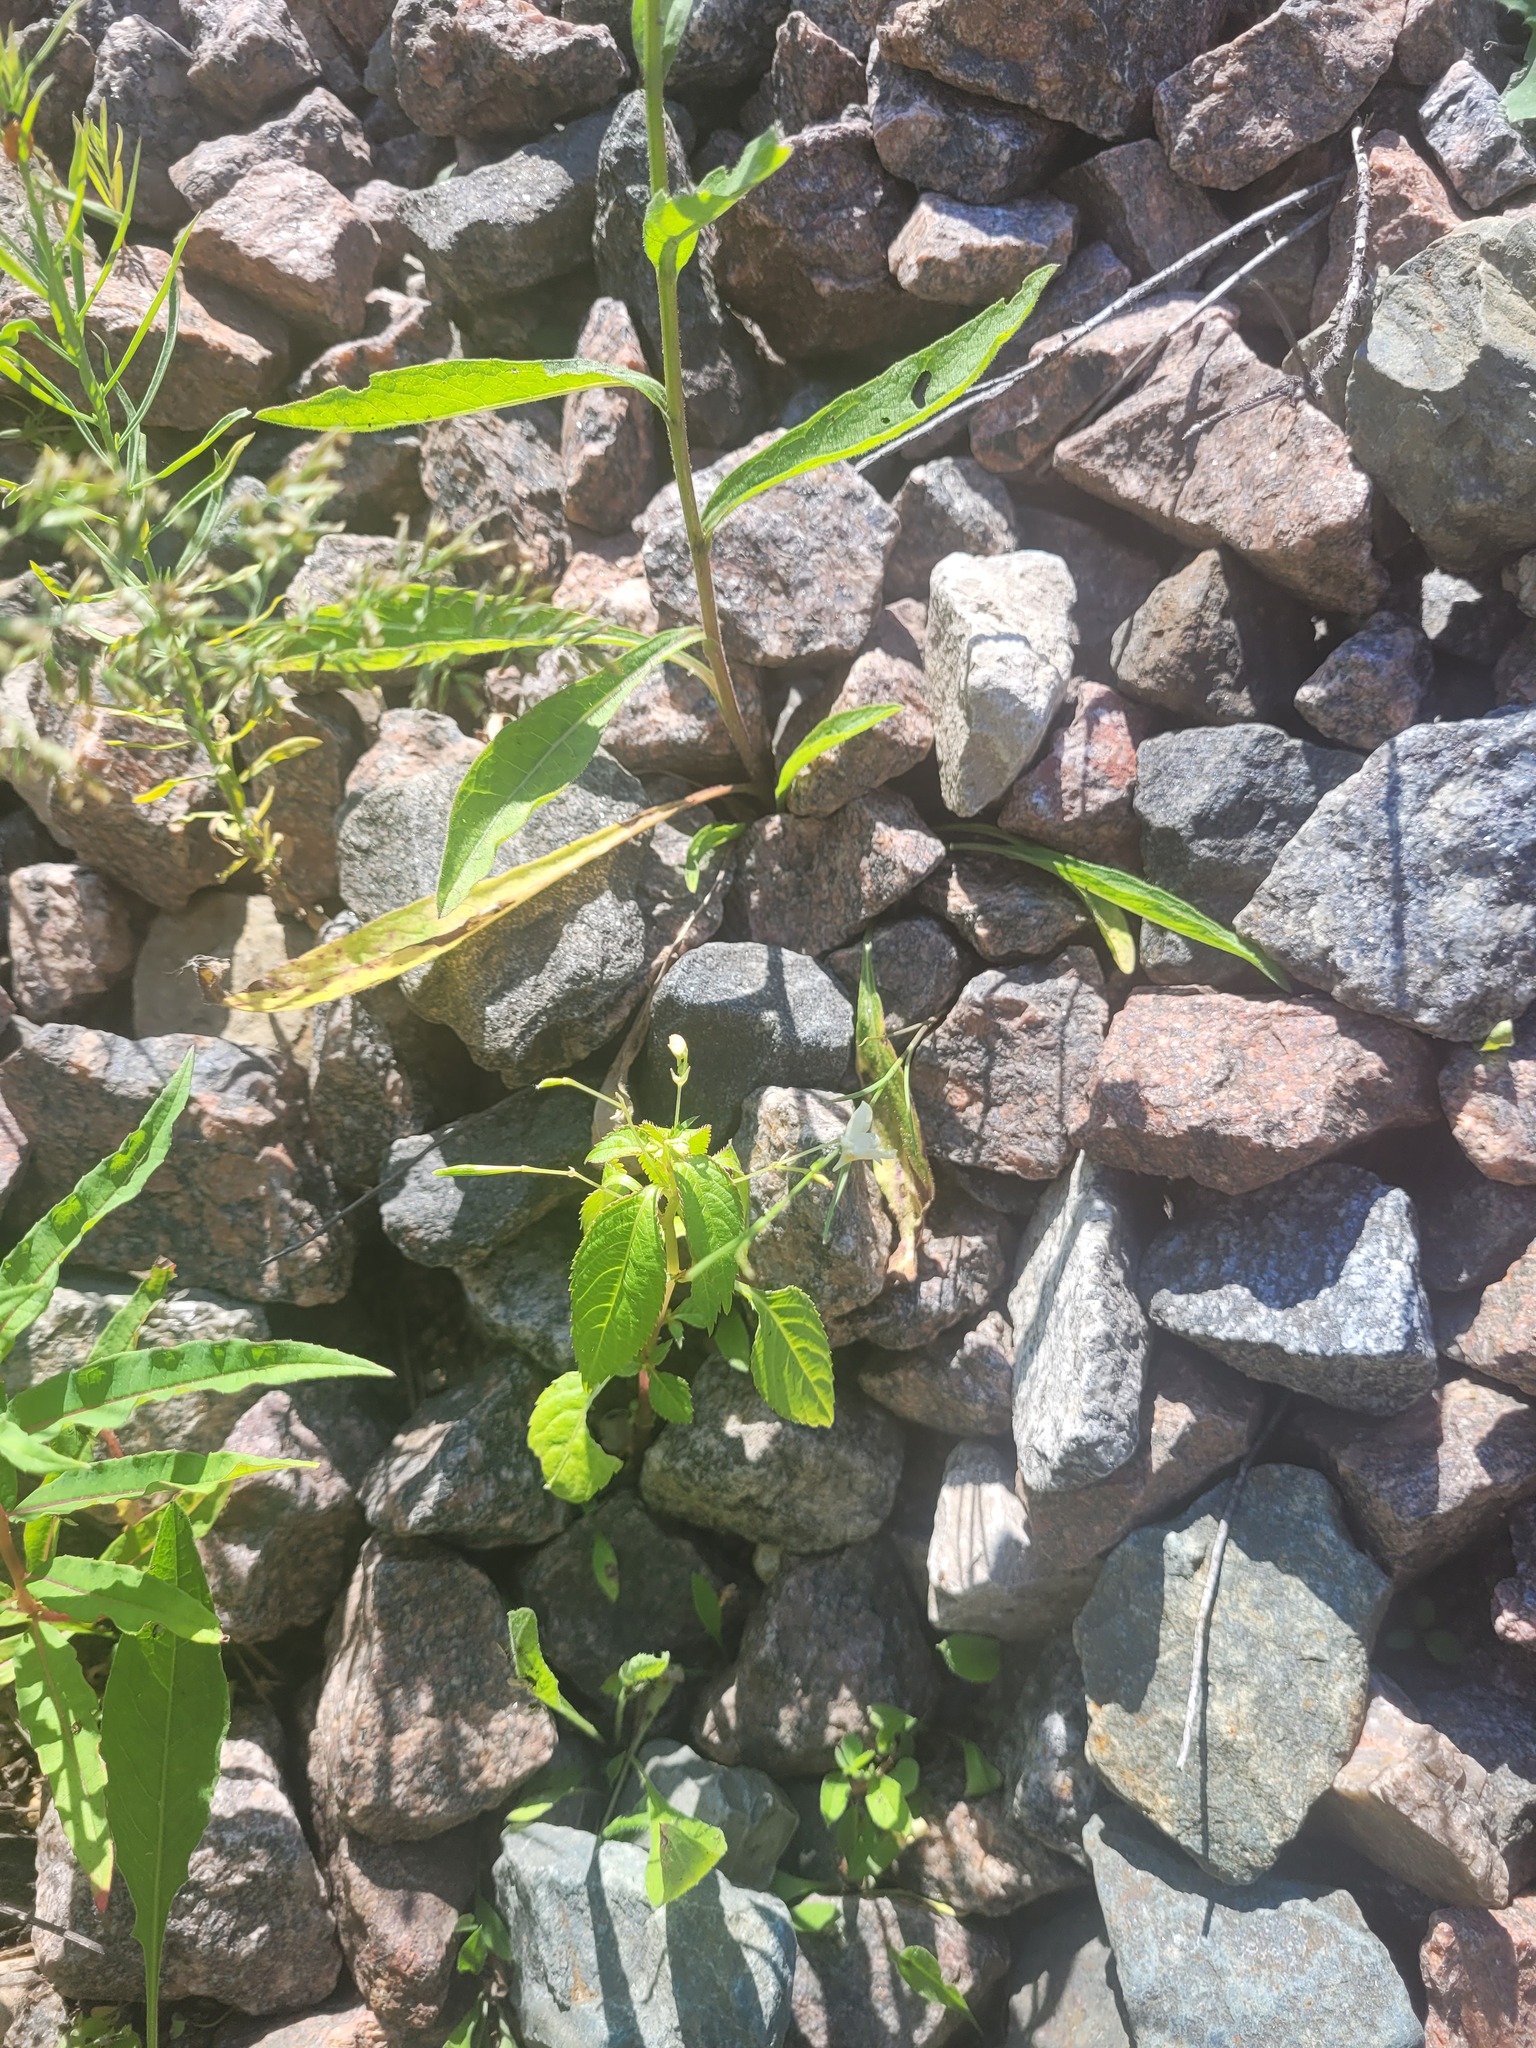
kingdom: Plantae
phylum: Tracheophyta
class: Magnoliopsida
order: Ericales
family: Balsaminaceae
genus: Impatiens
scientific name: Impatiens parviflora
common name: Small balsam
